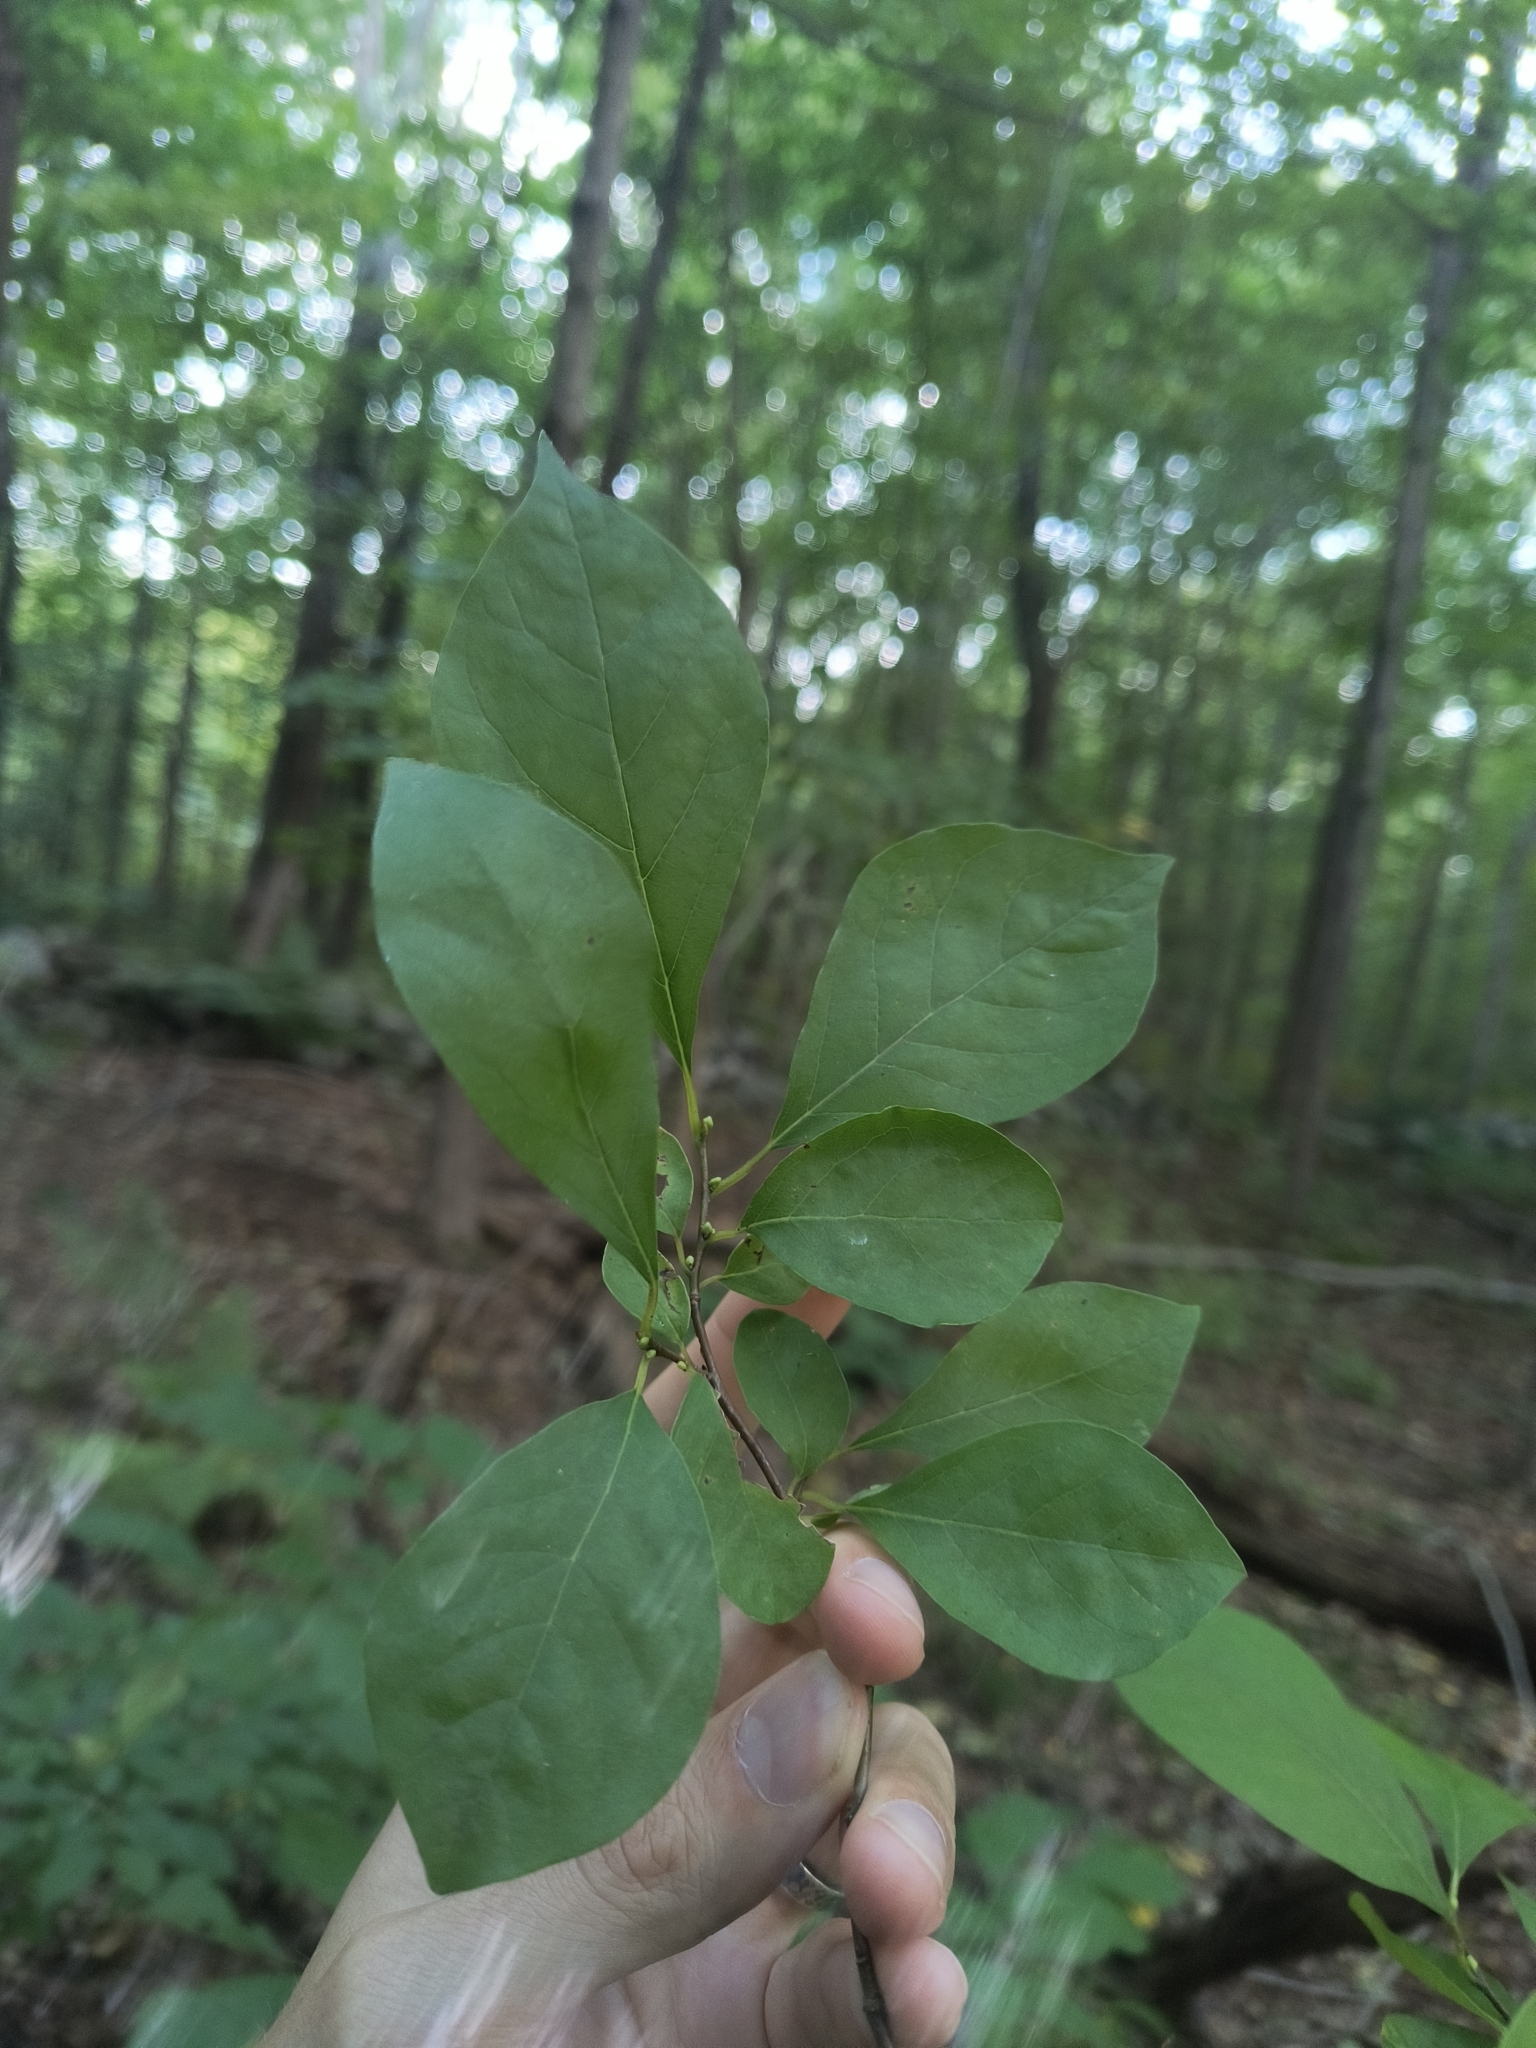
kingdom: Plantae
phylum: Tracheophyta
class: Magnoliopsida
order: Laurales
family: Lauraceae
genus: Lindera
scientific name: Lindera benzoin
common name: Spicebush
